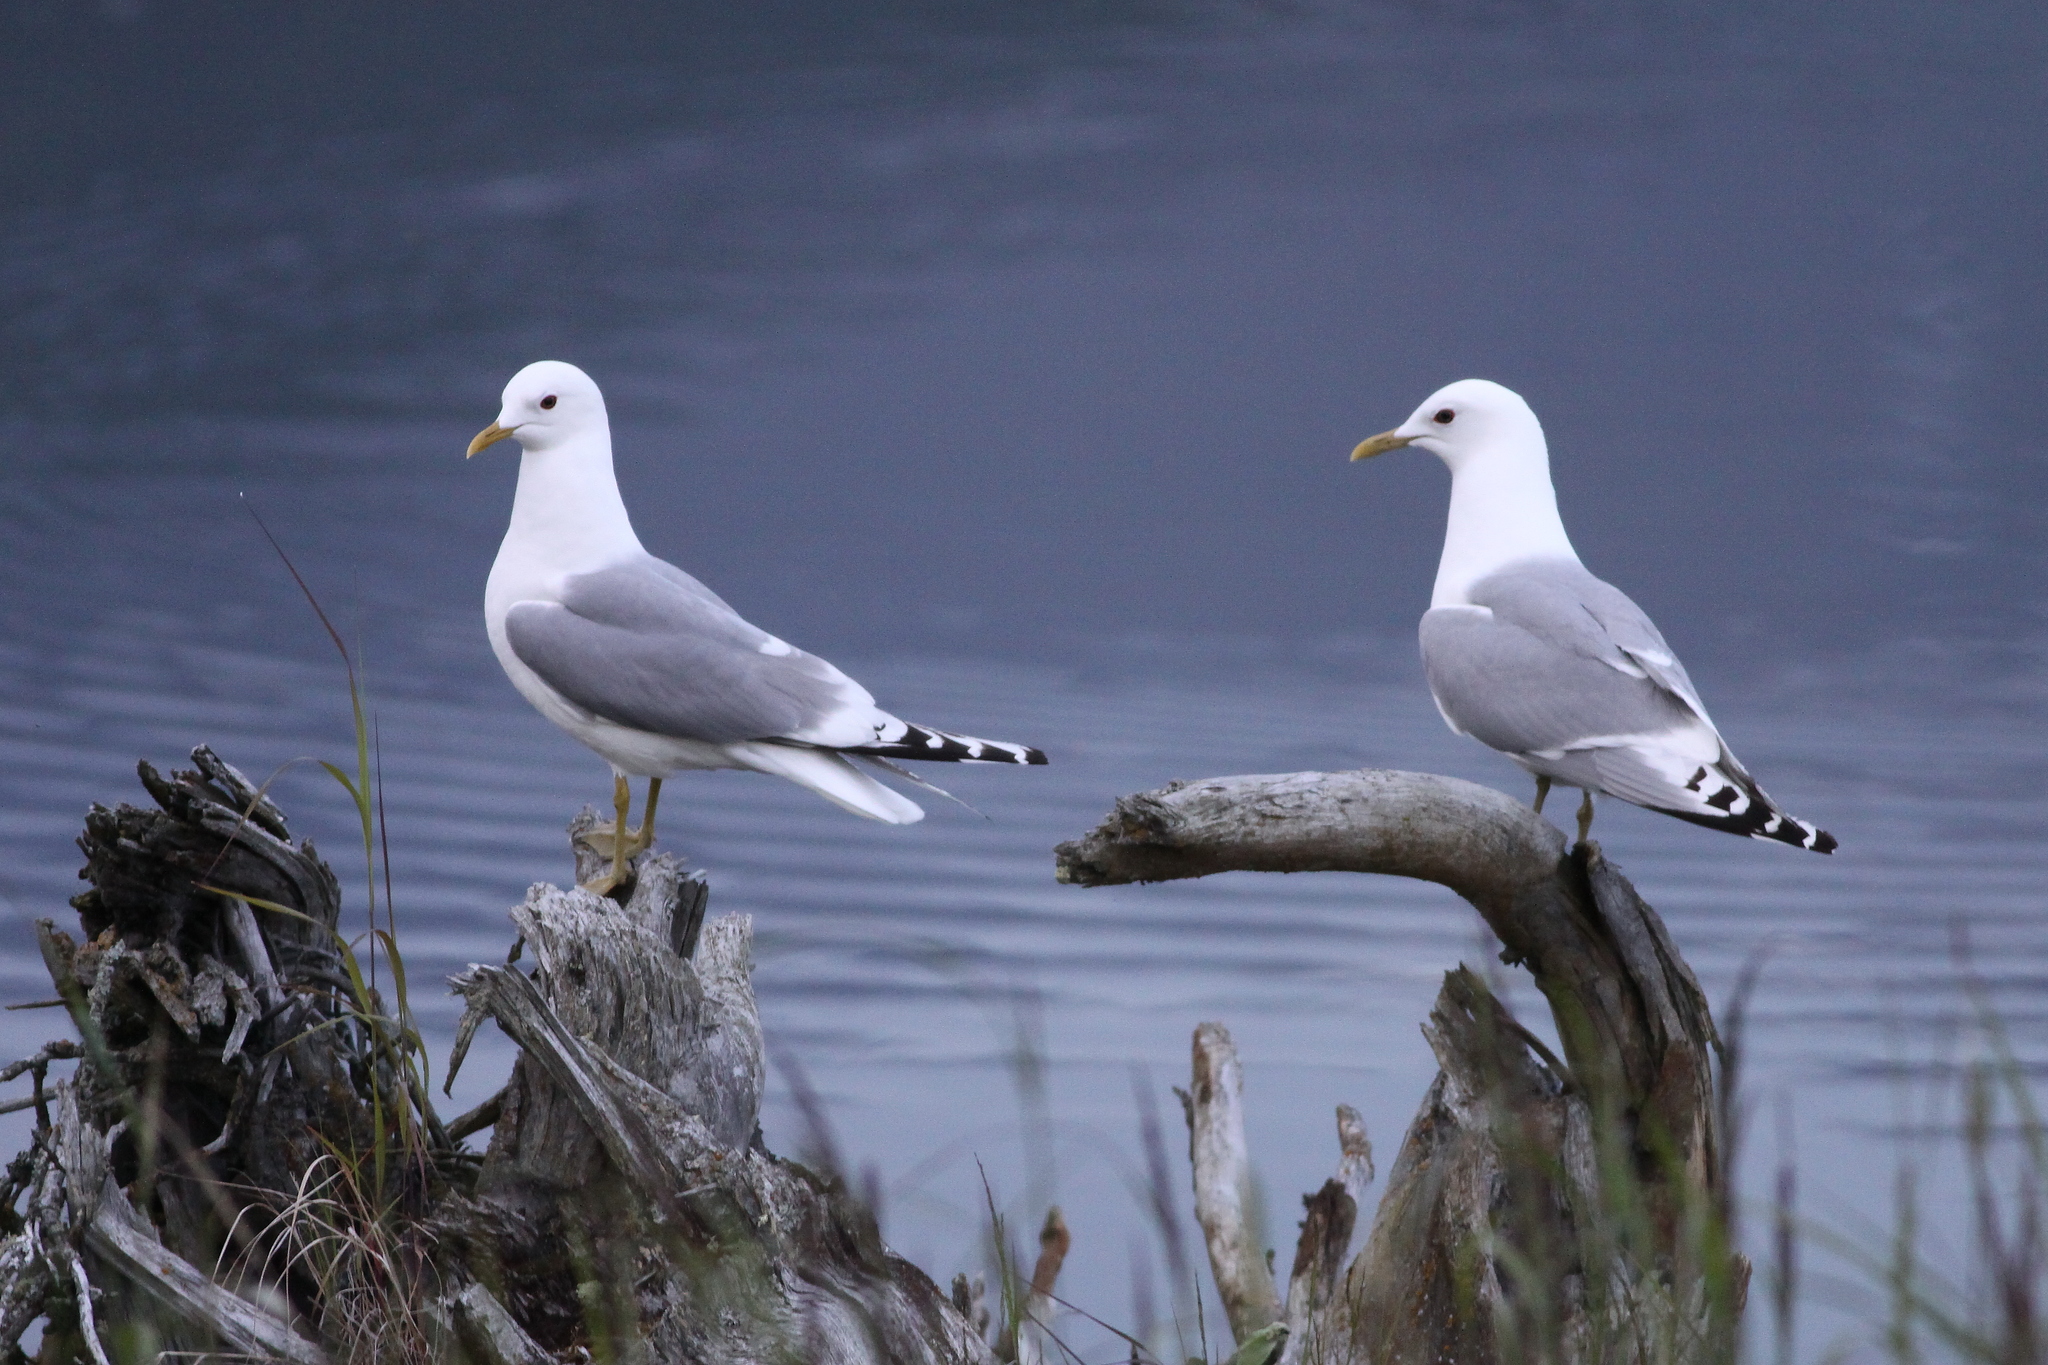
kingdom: Animalia
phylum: Chordata
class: Aves
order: Charadriiformes
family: Laridae
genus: Larus
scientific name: Larus brachyrhynchus
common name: Short-billed gull
